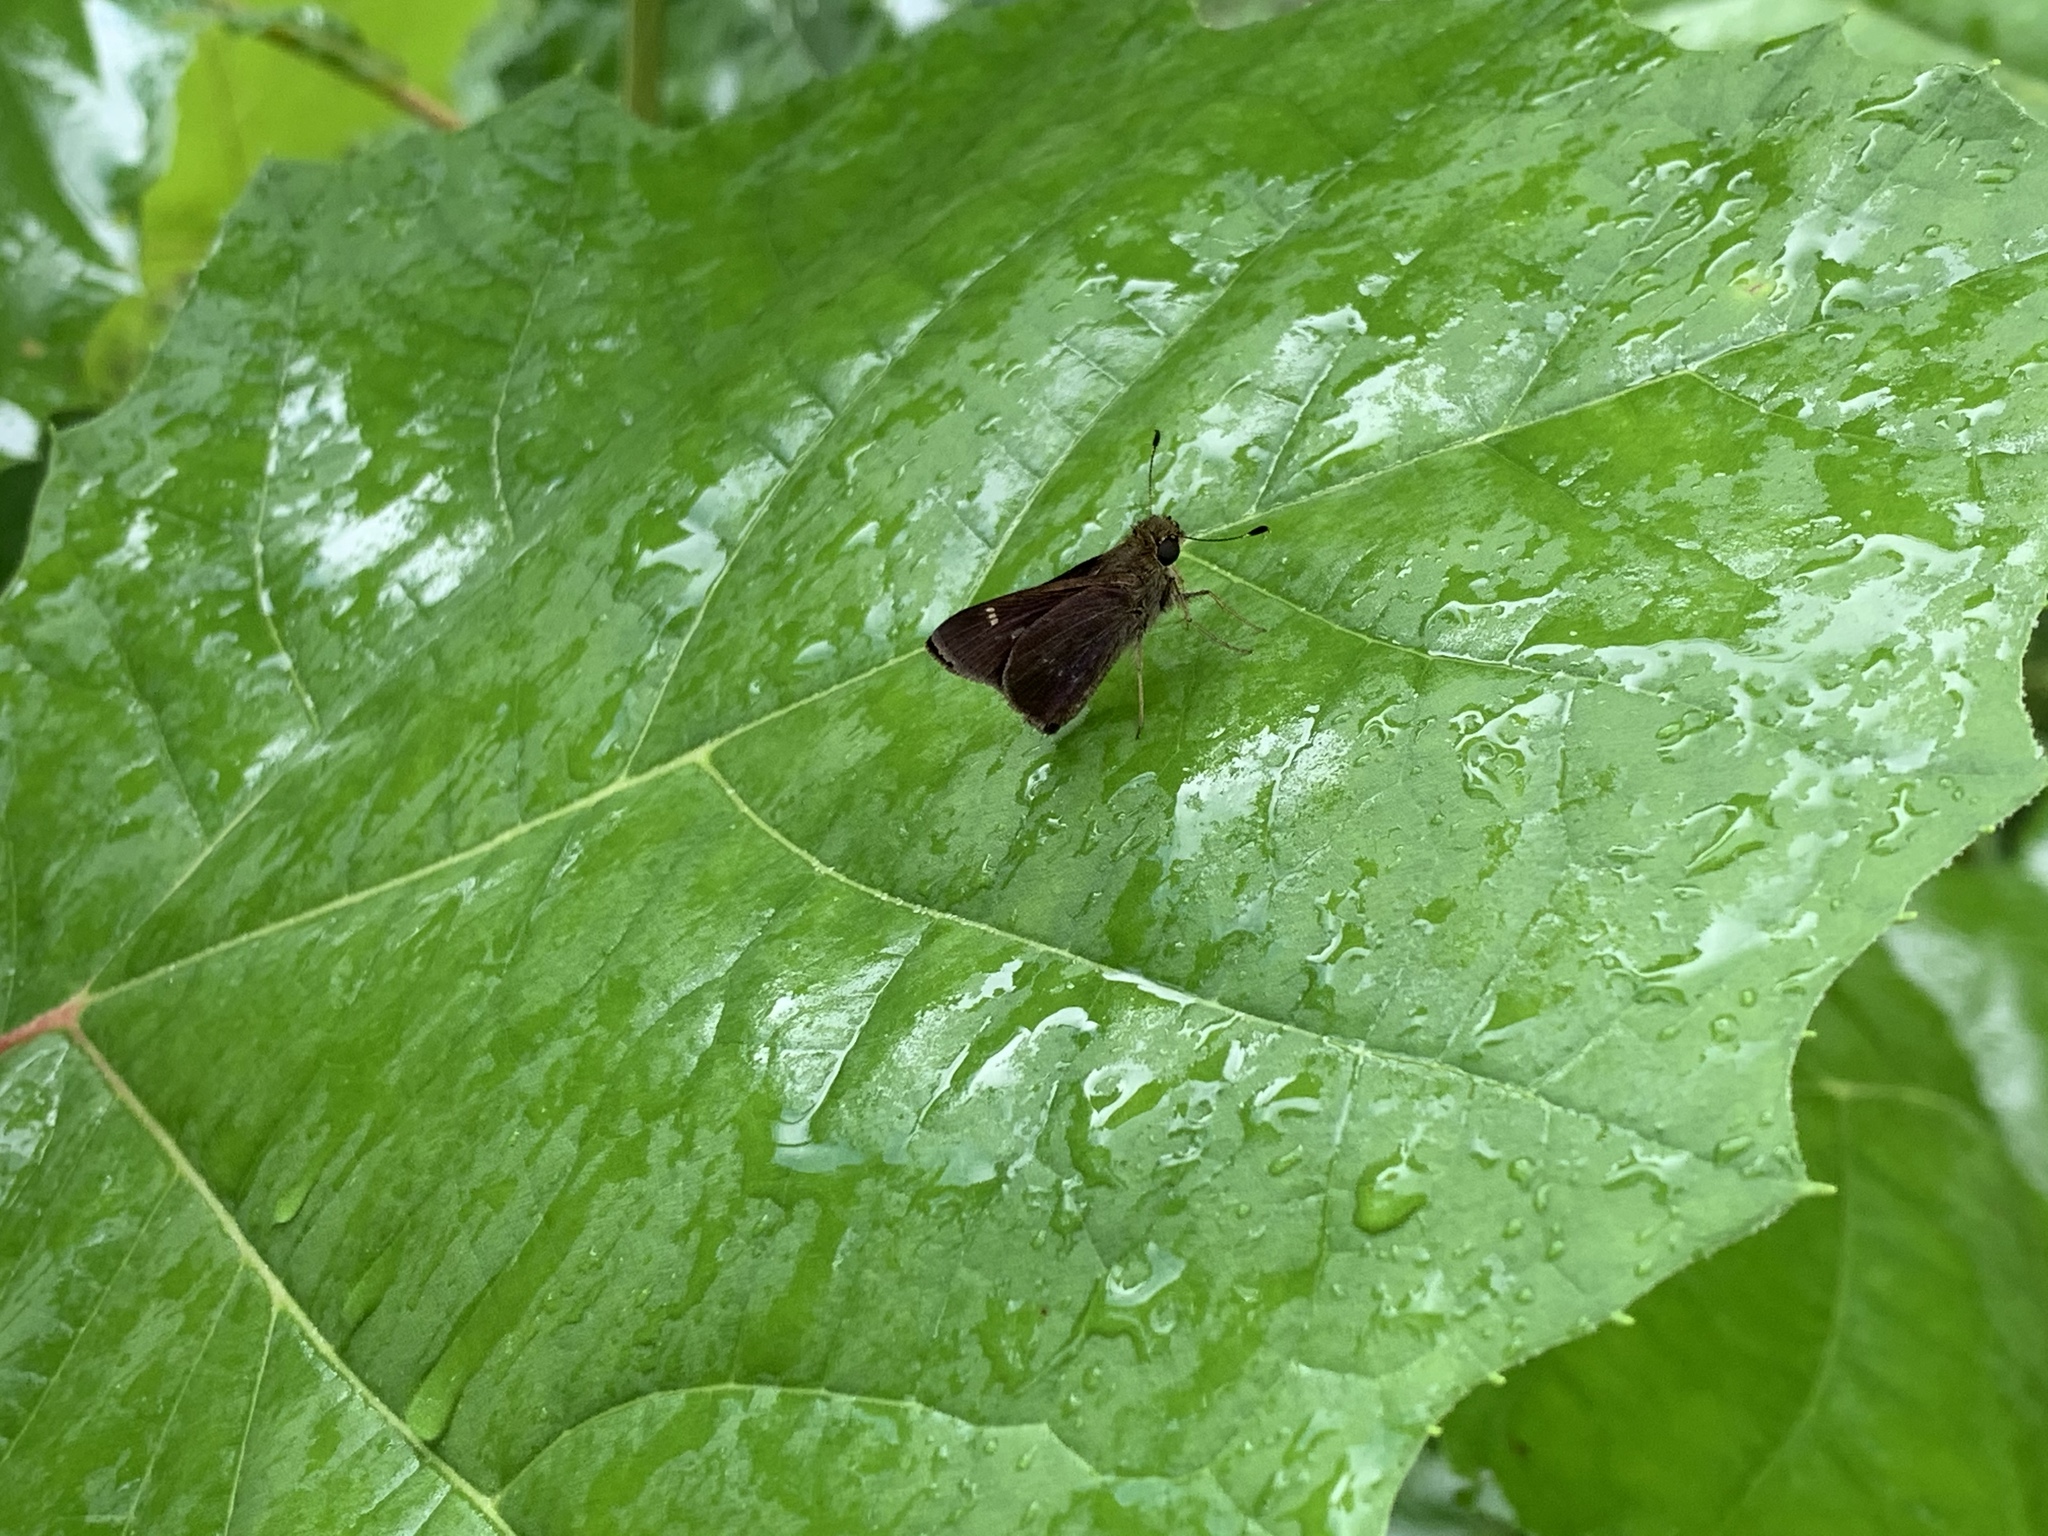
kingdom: Animalia
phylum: Arthropoda
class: Insecta
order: Lepidoptera
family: Hesperiidae
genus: Vernia
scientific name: Vernia verna
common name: Little glassywing
